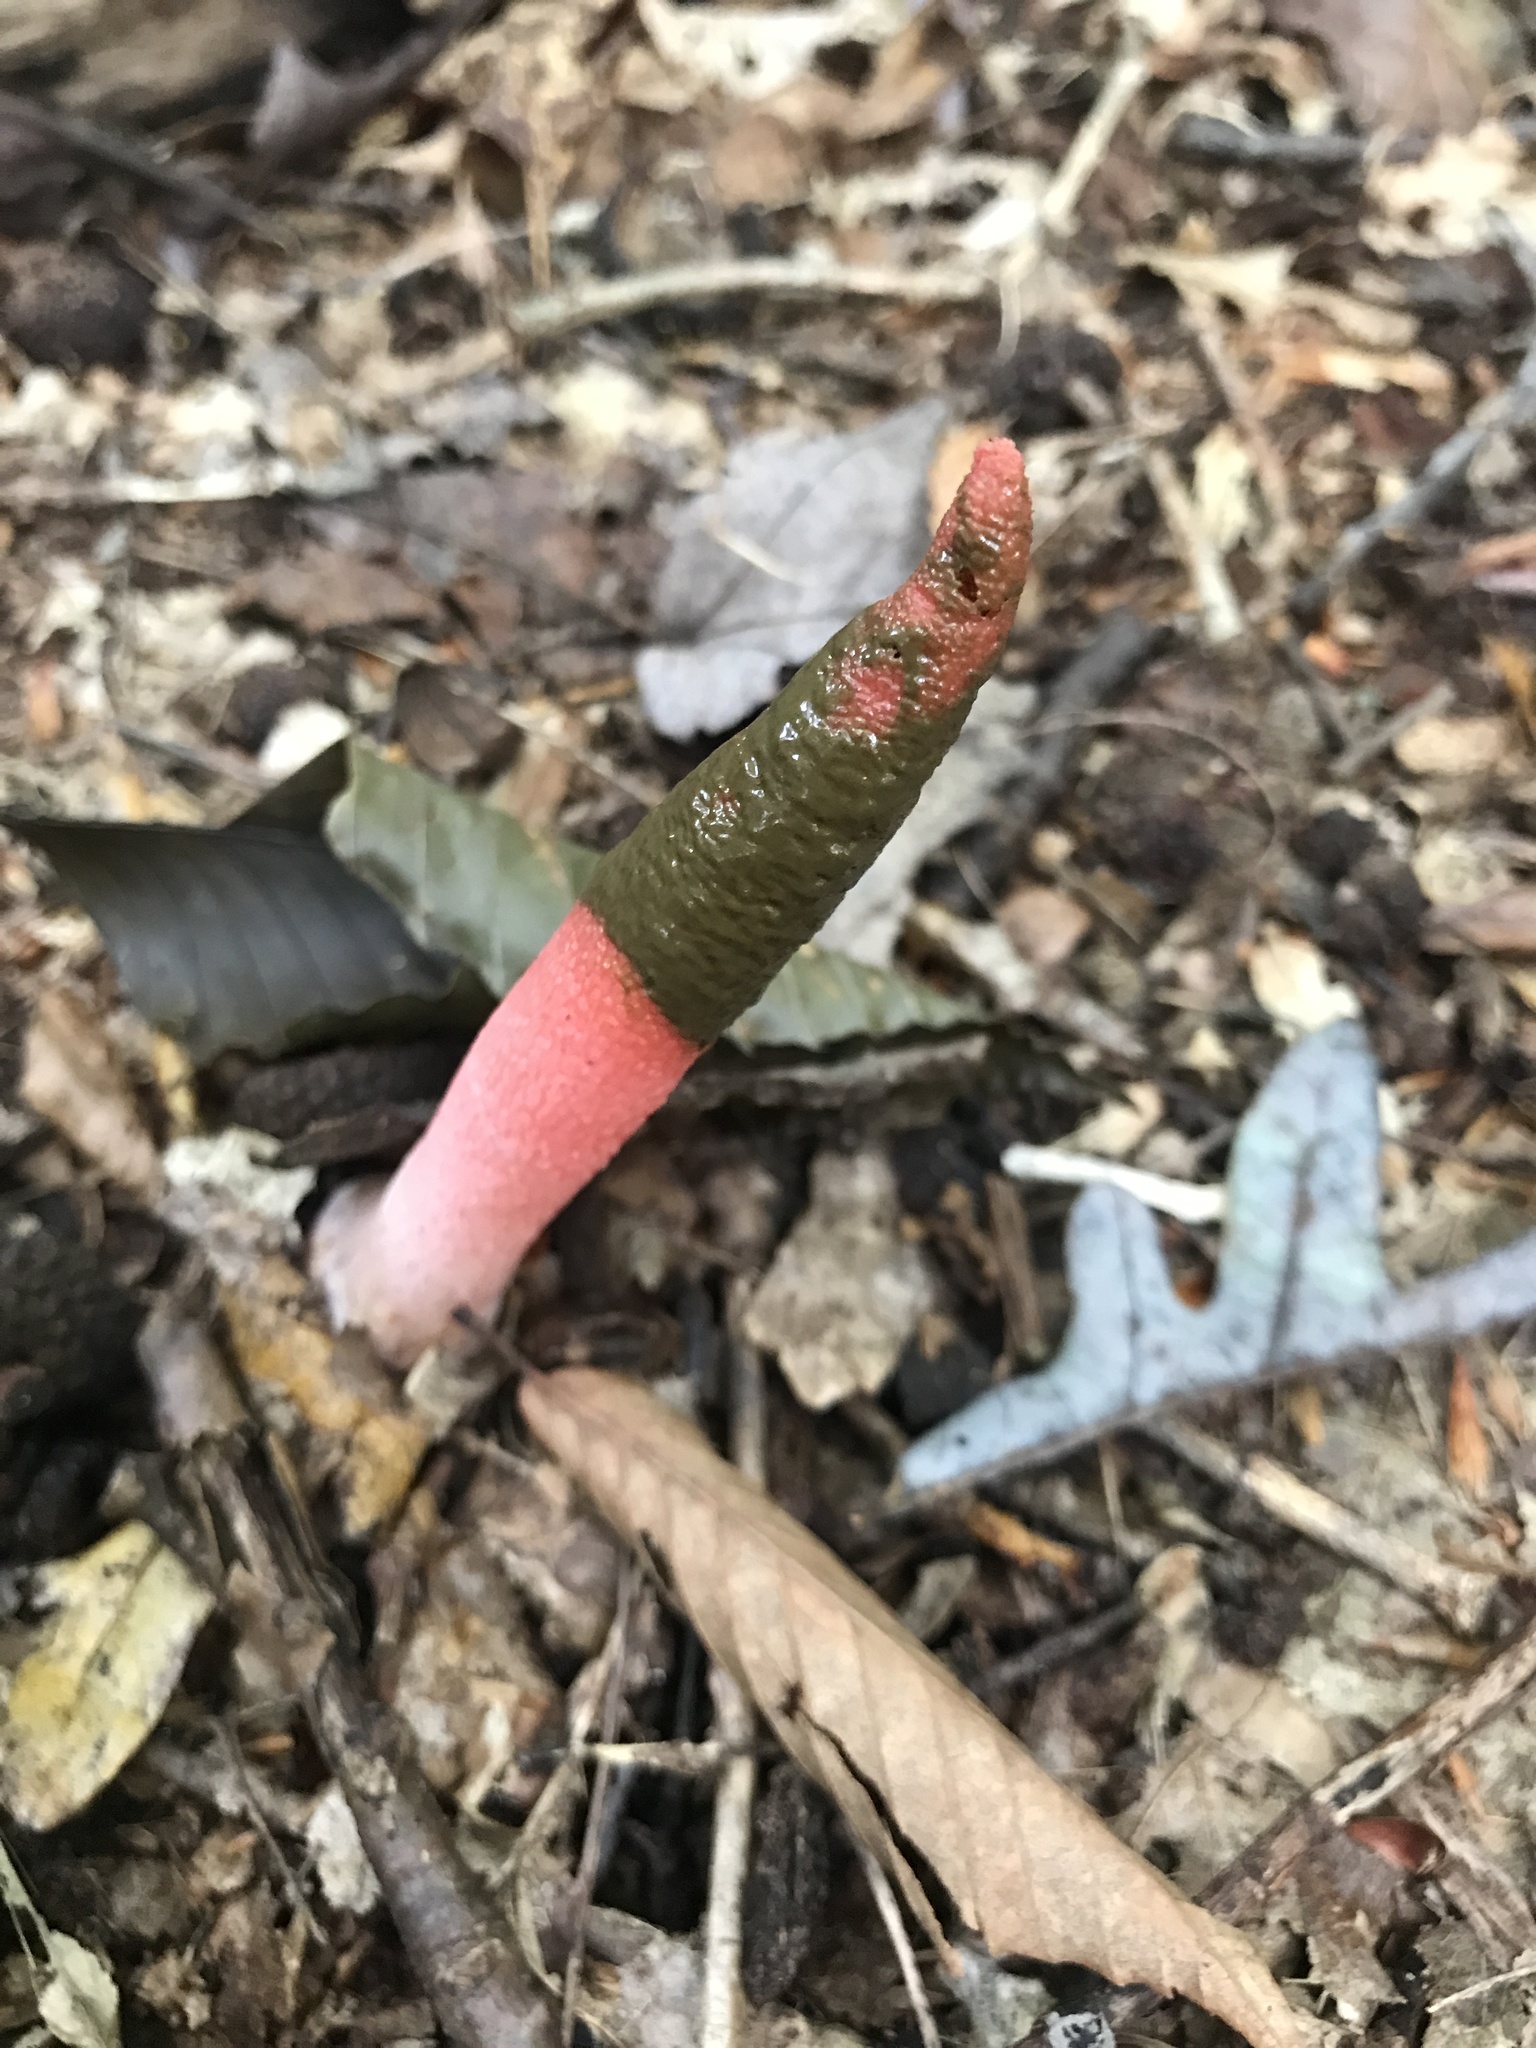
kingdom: Fungi
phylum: Basidiomycota
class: Agaricomycetes
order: Phallales
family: Phallaceae
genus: Mutinus
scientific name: Mutinus elegans
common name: Devil's dipstick
